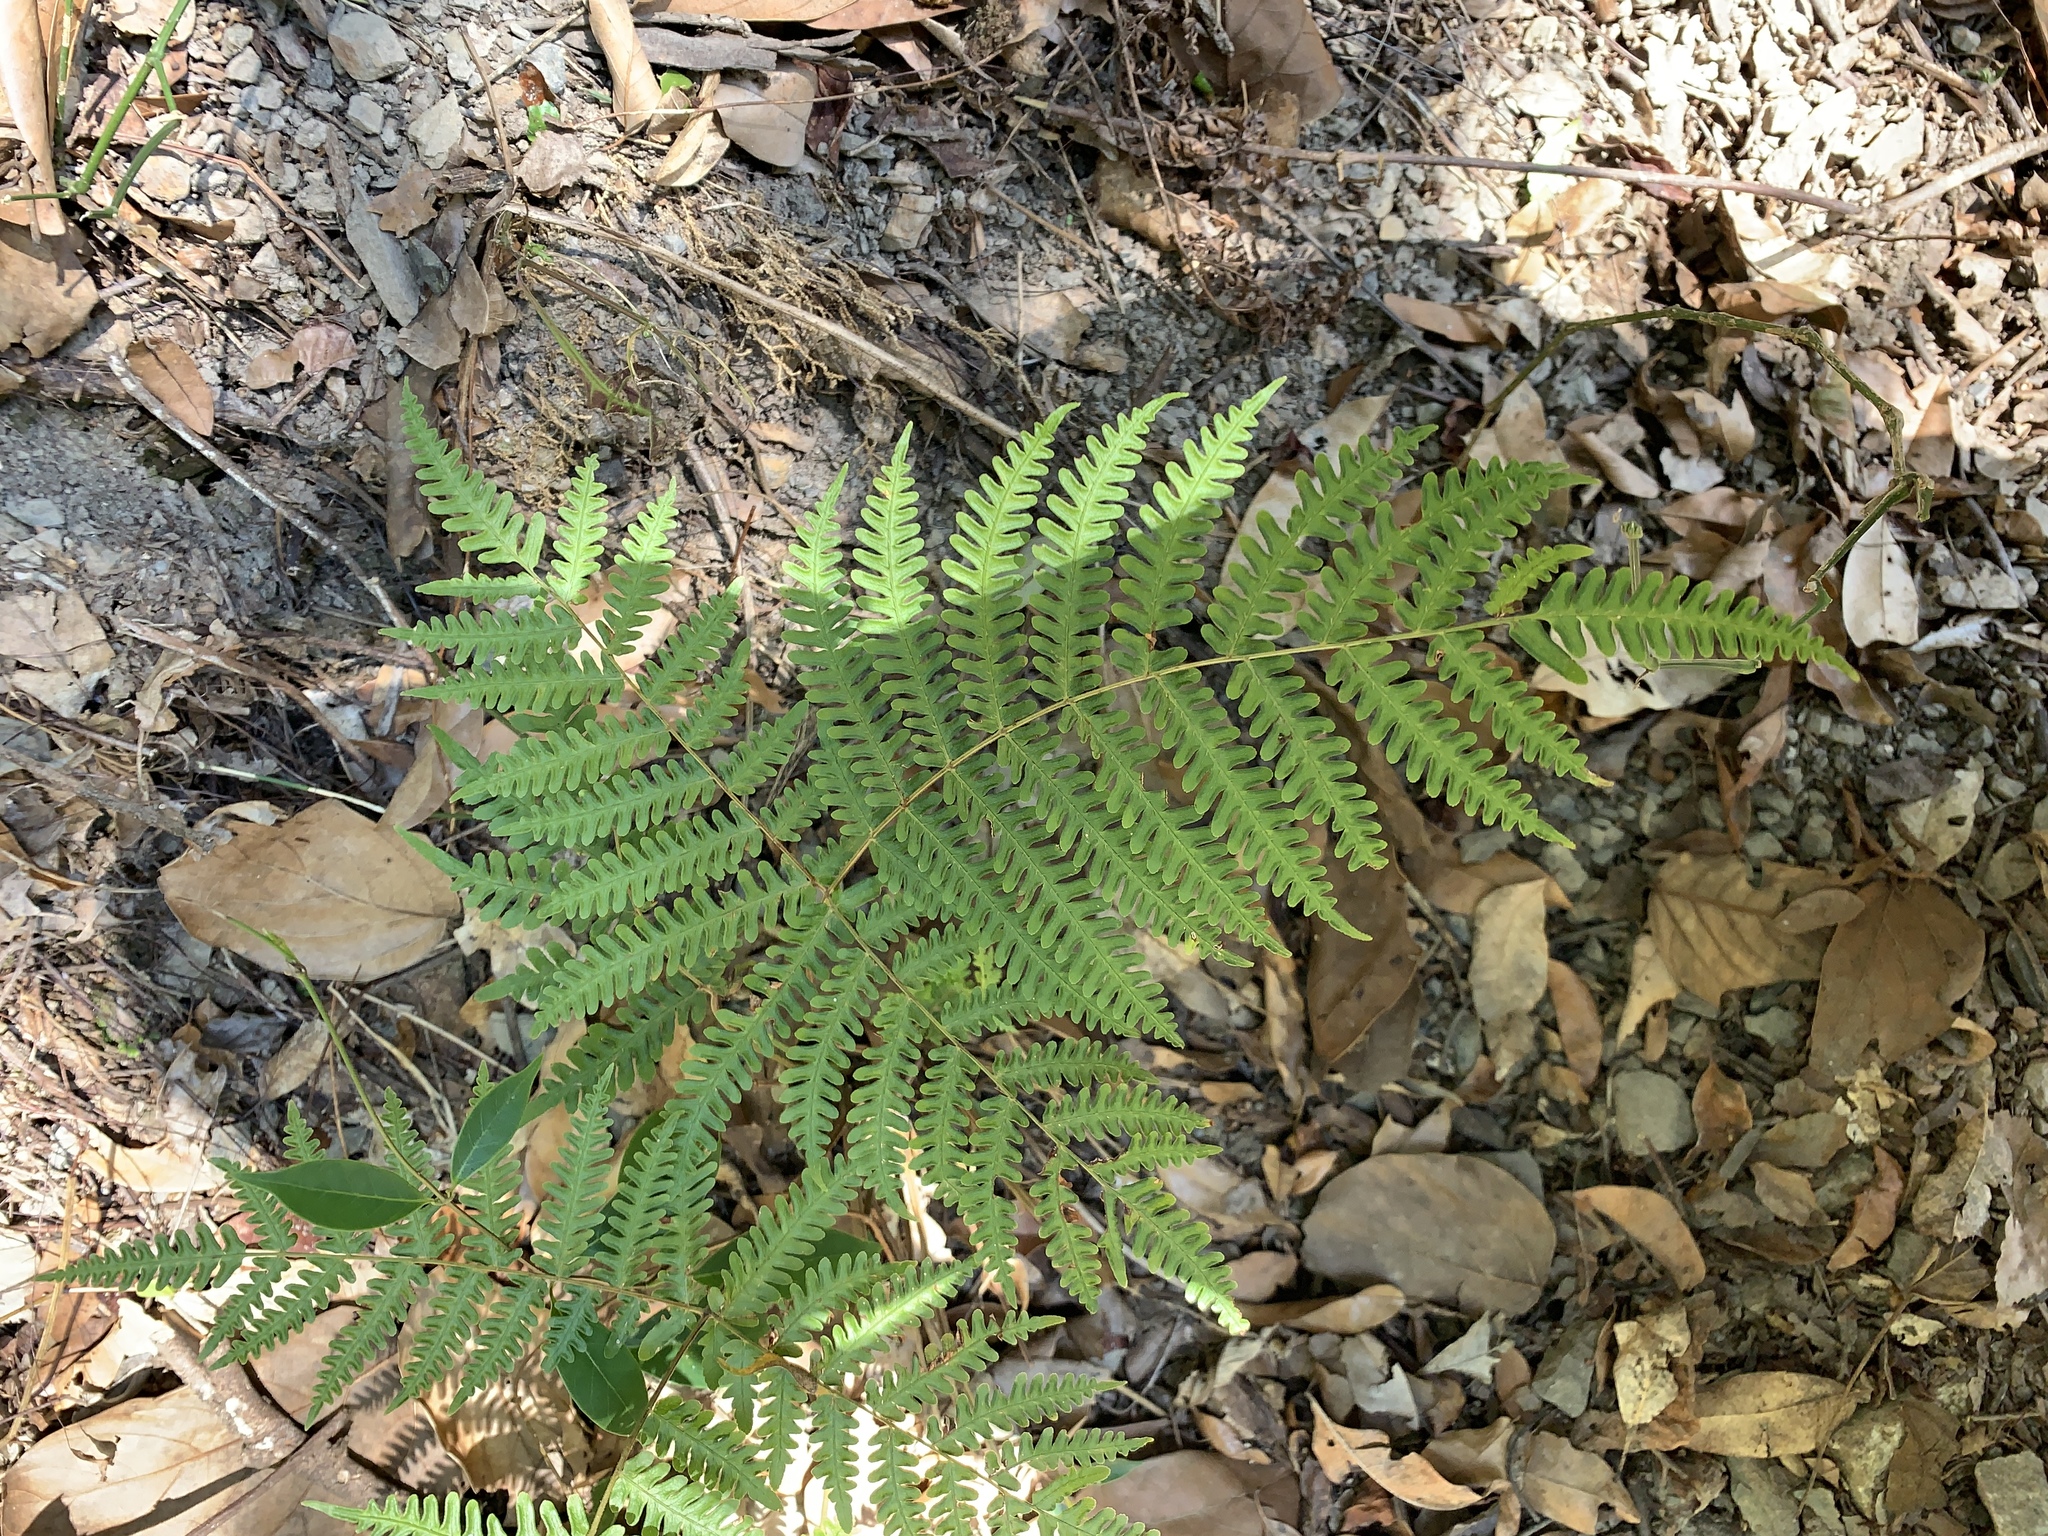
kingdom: Plantae
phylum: Tracheophyta
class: Polypodiopsida
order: Polypodiales
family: Pteridaceae
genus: Pteris
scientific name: Pteris longipes
